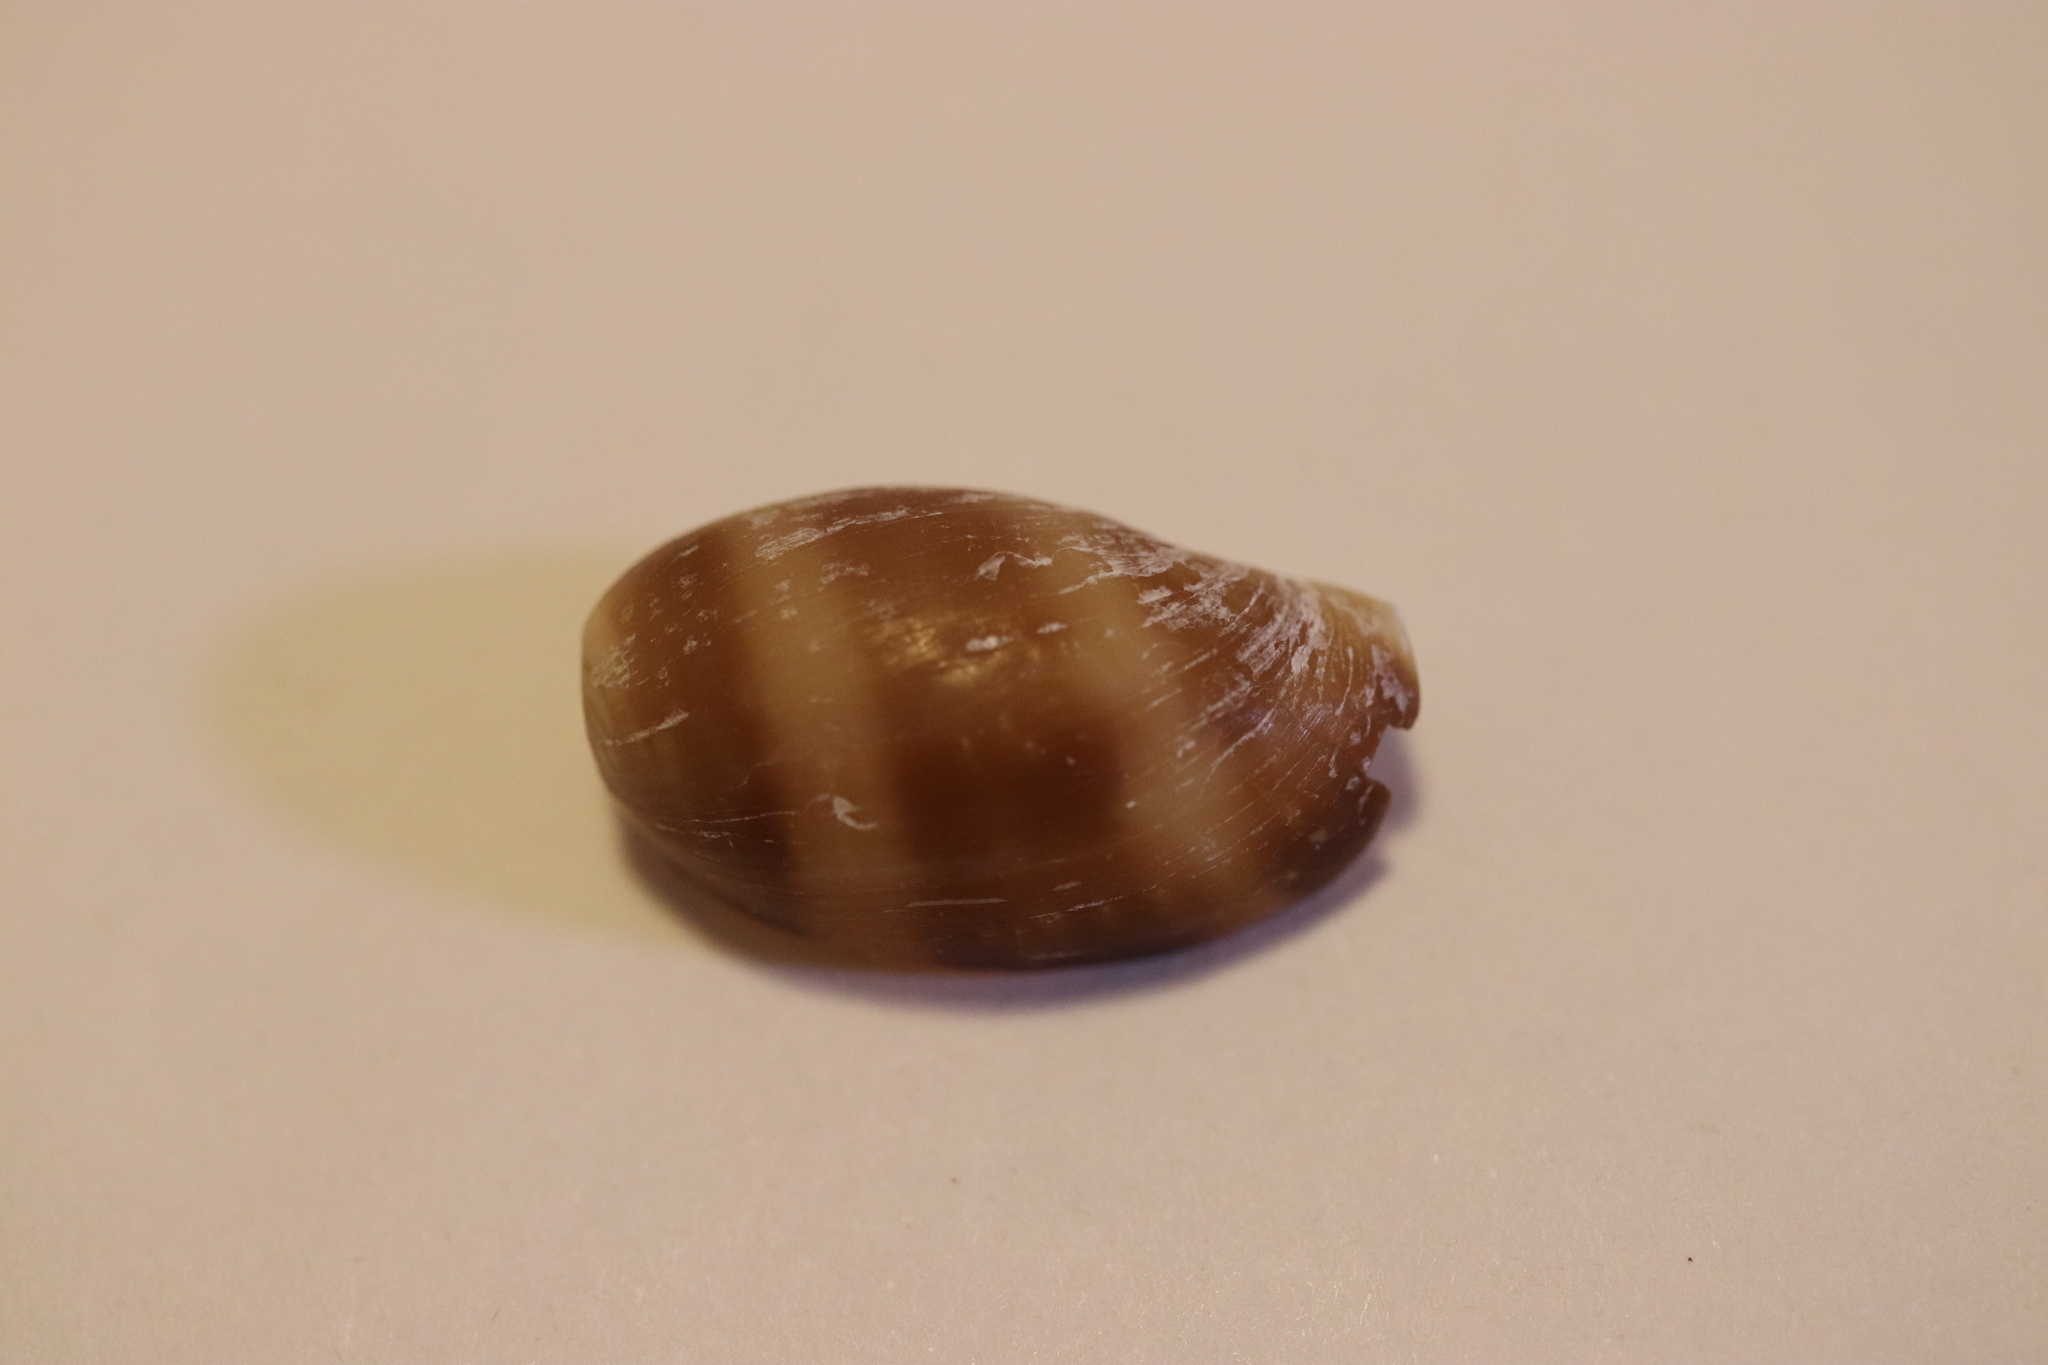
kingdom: Animalia
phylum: Mollusca
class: Gastropoda
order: Littorinimorpha
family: Cypraeidae
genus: Lyncina
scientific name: Lyncina vitellus
